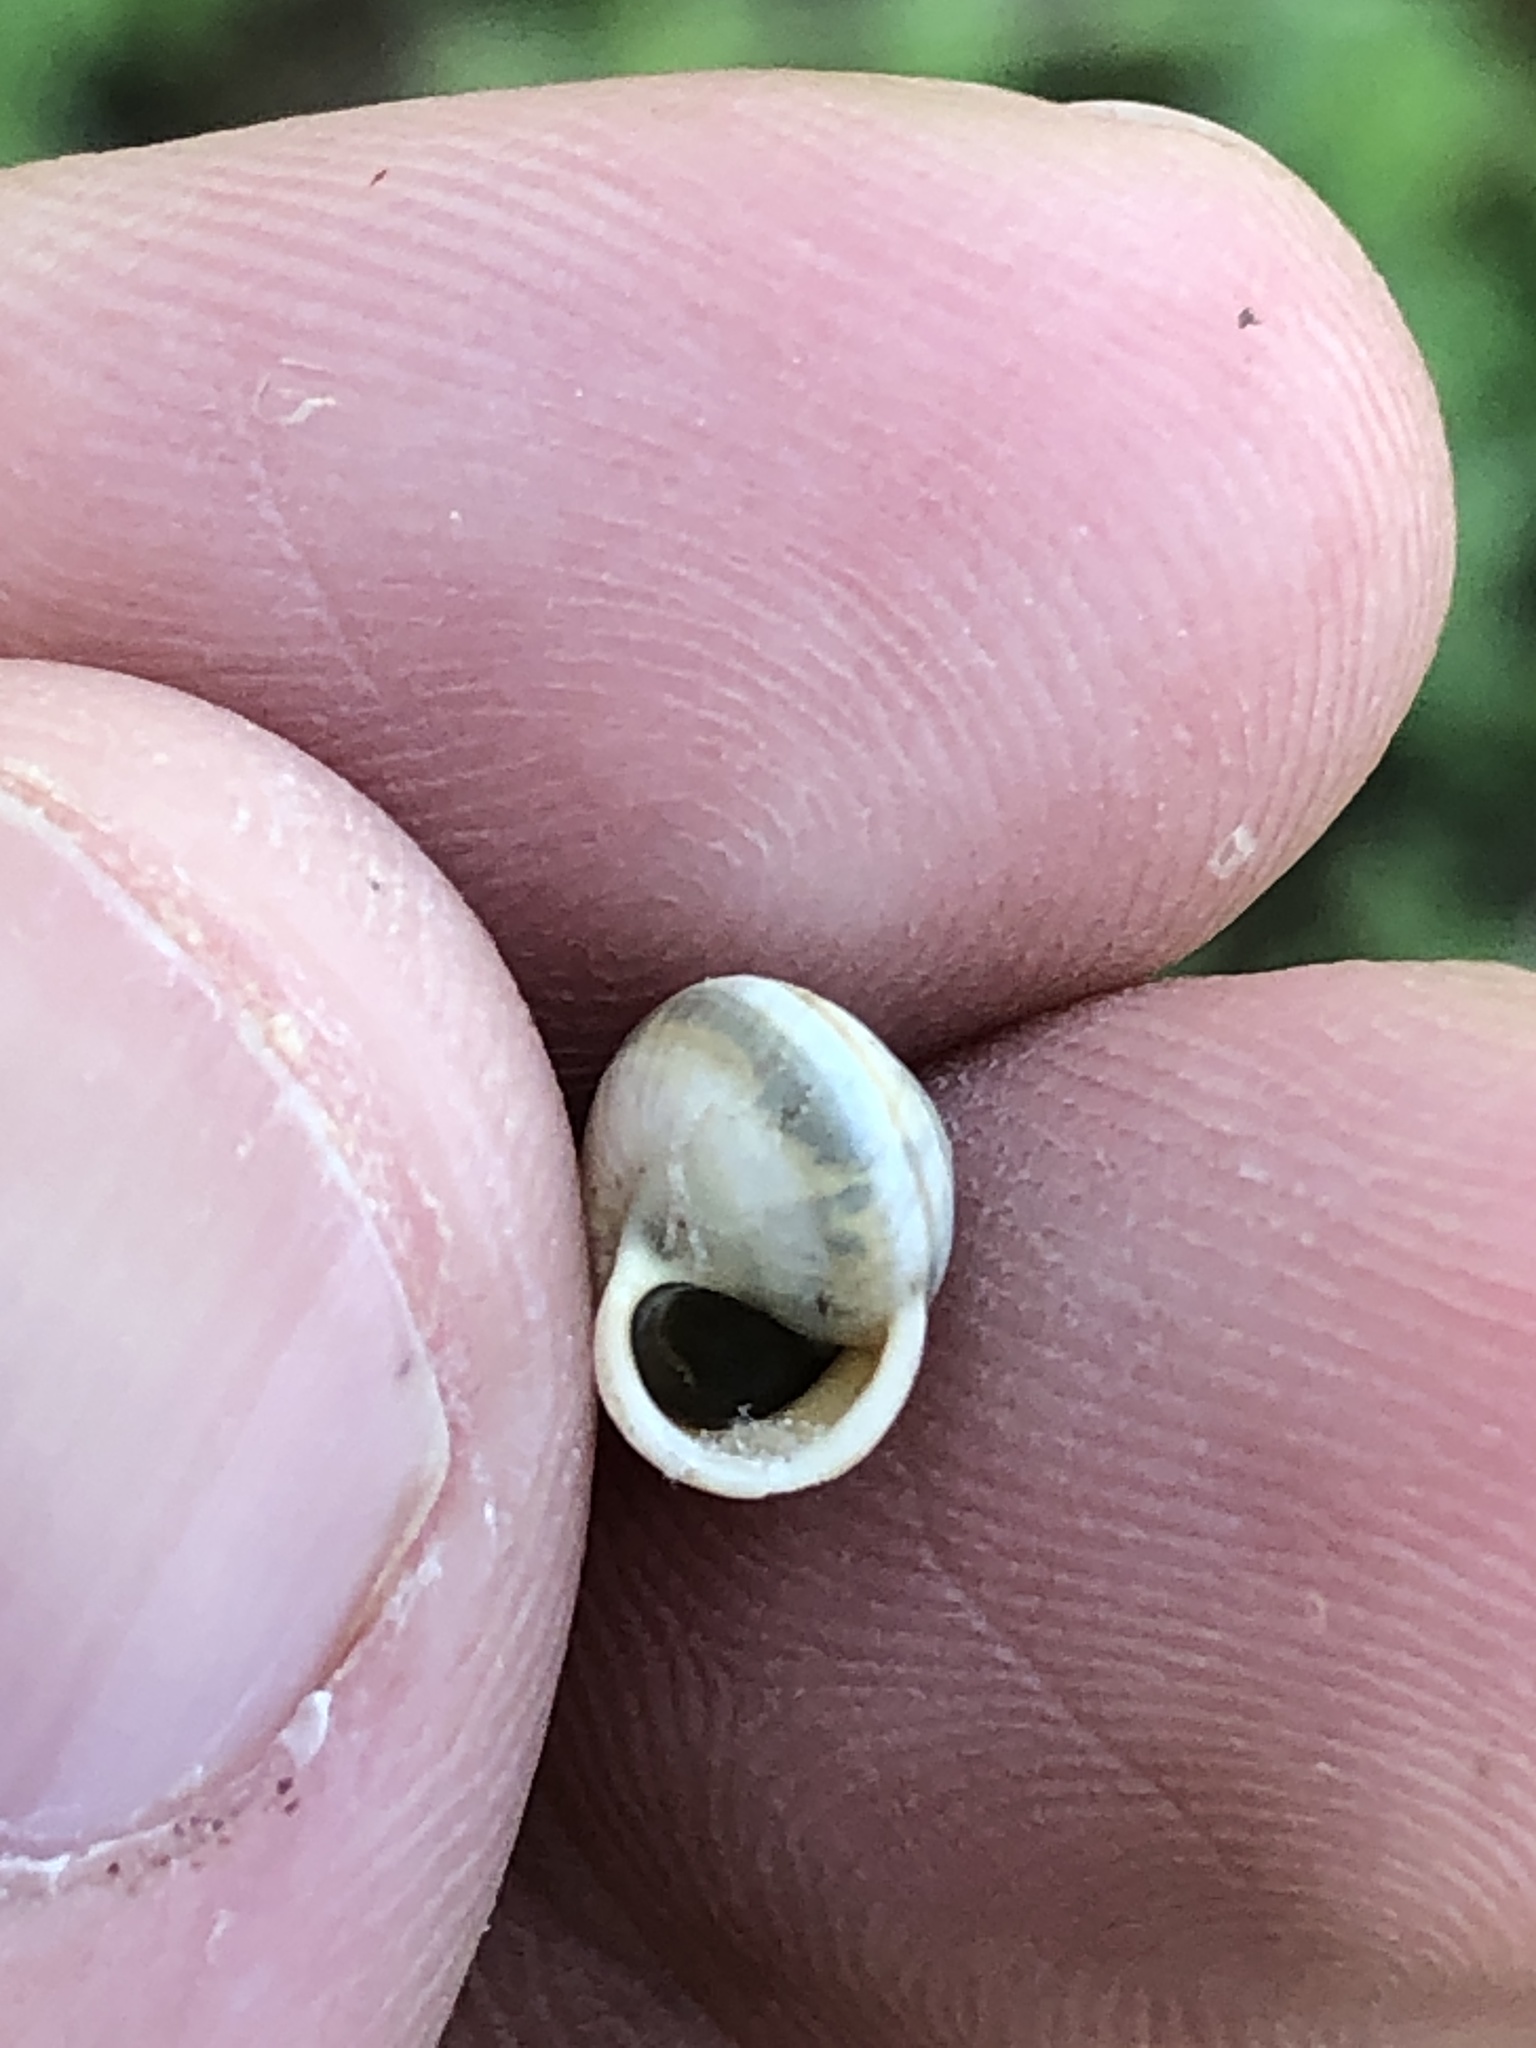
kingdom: Animalia
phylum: Mollusca
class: Gastropoda
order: Cycloneritida
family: Helicinidae
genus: Helicina
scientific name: Helicina orbiculata
